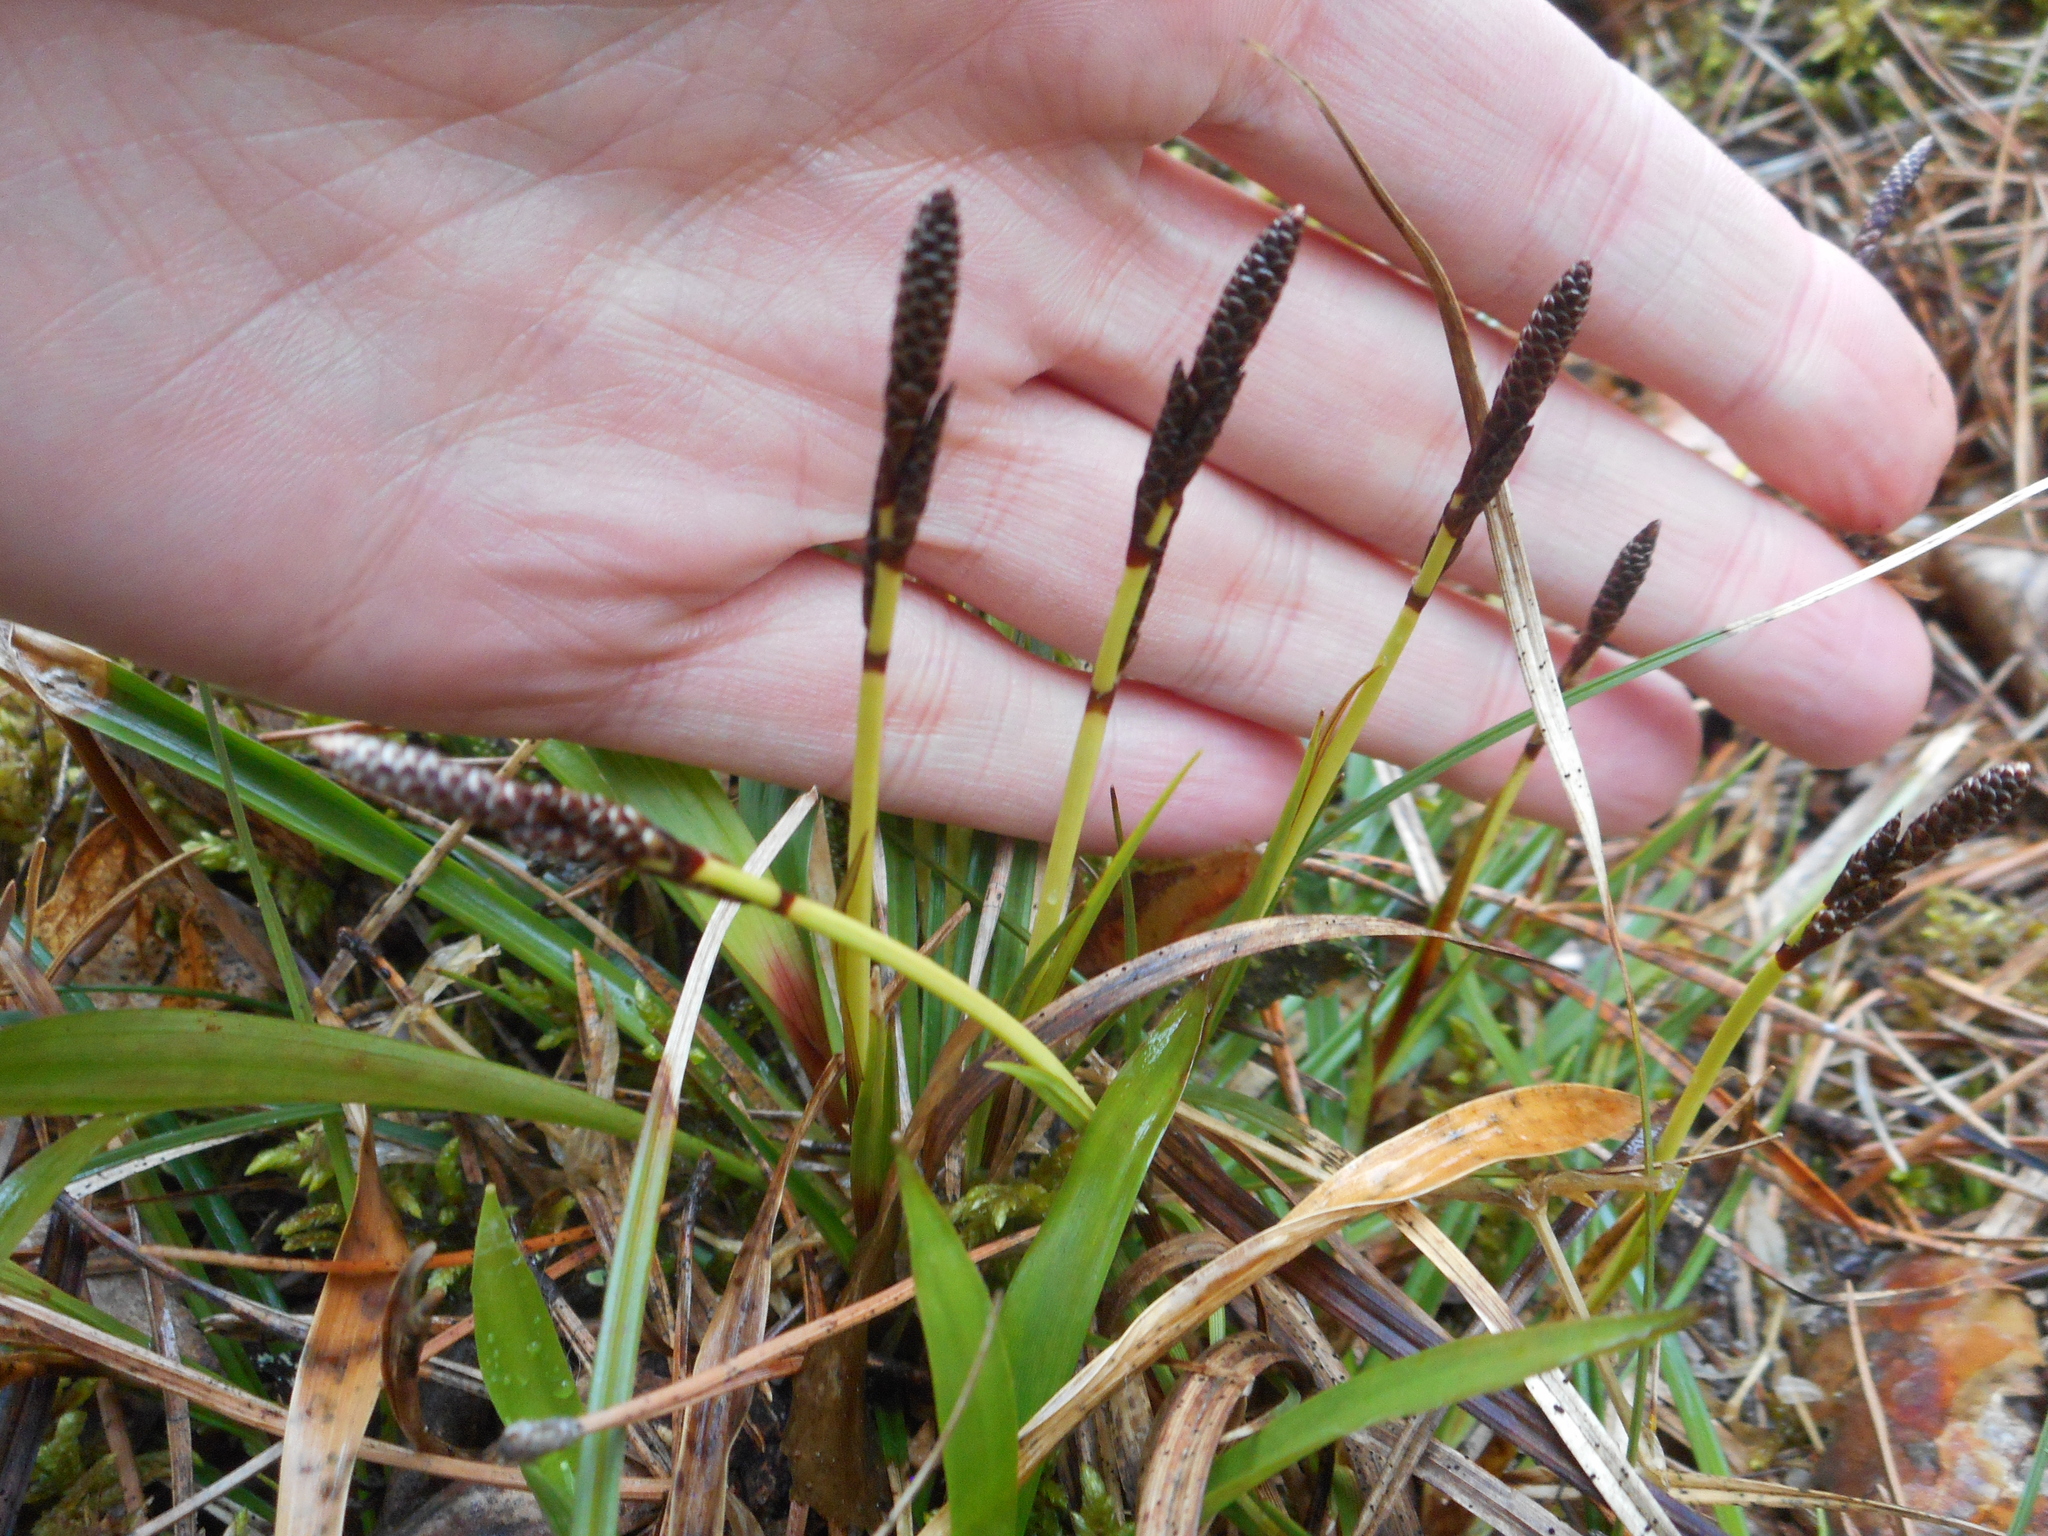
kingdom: Plantae
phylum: Tracheophyta
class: Liliopsida
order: Poales
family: Cyperaceae
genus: Carex
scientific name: Carex digitata
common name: Fingered sedge
